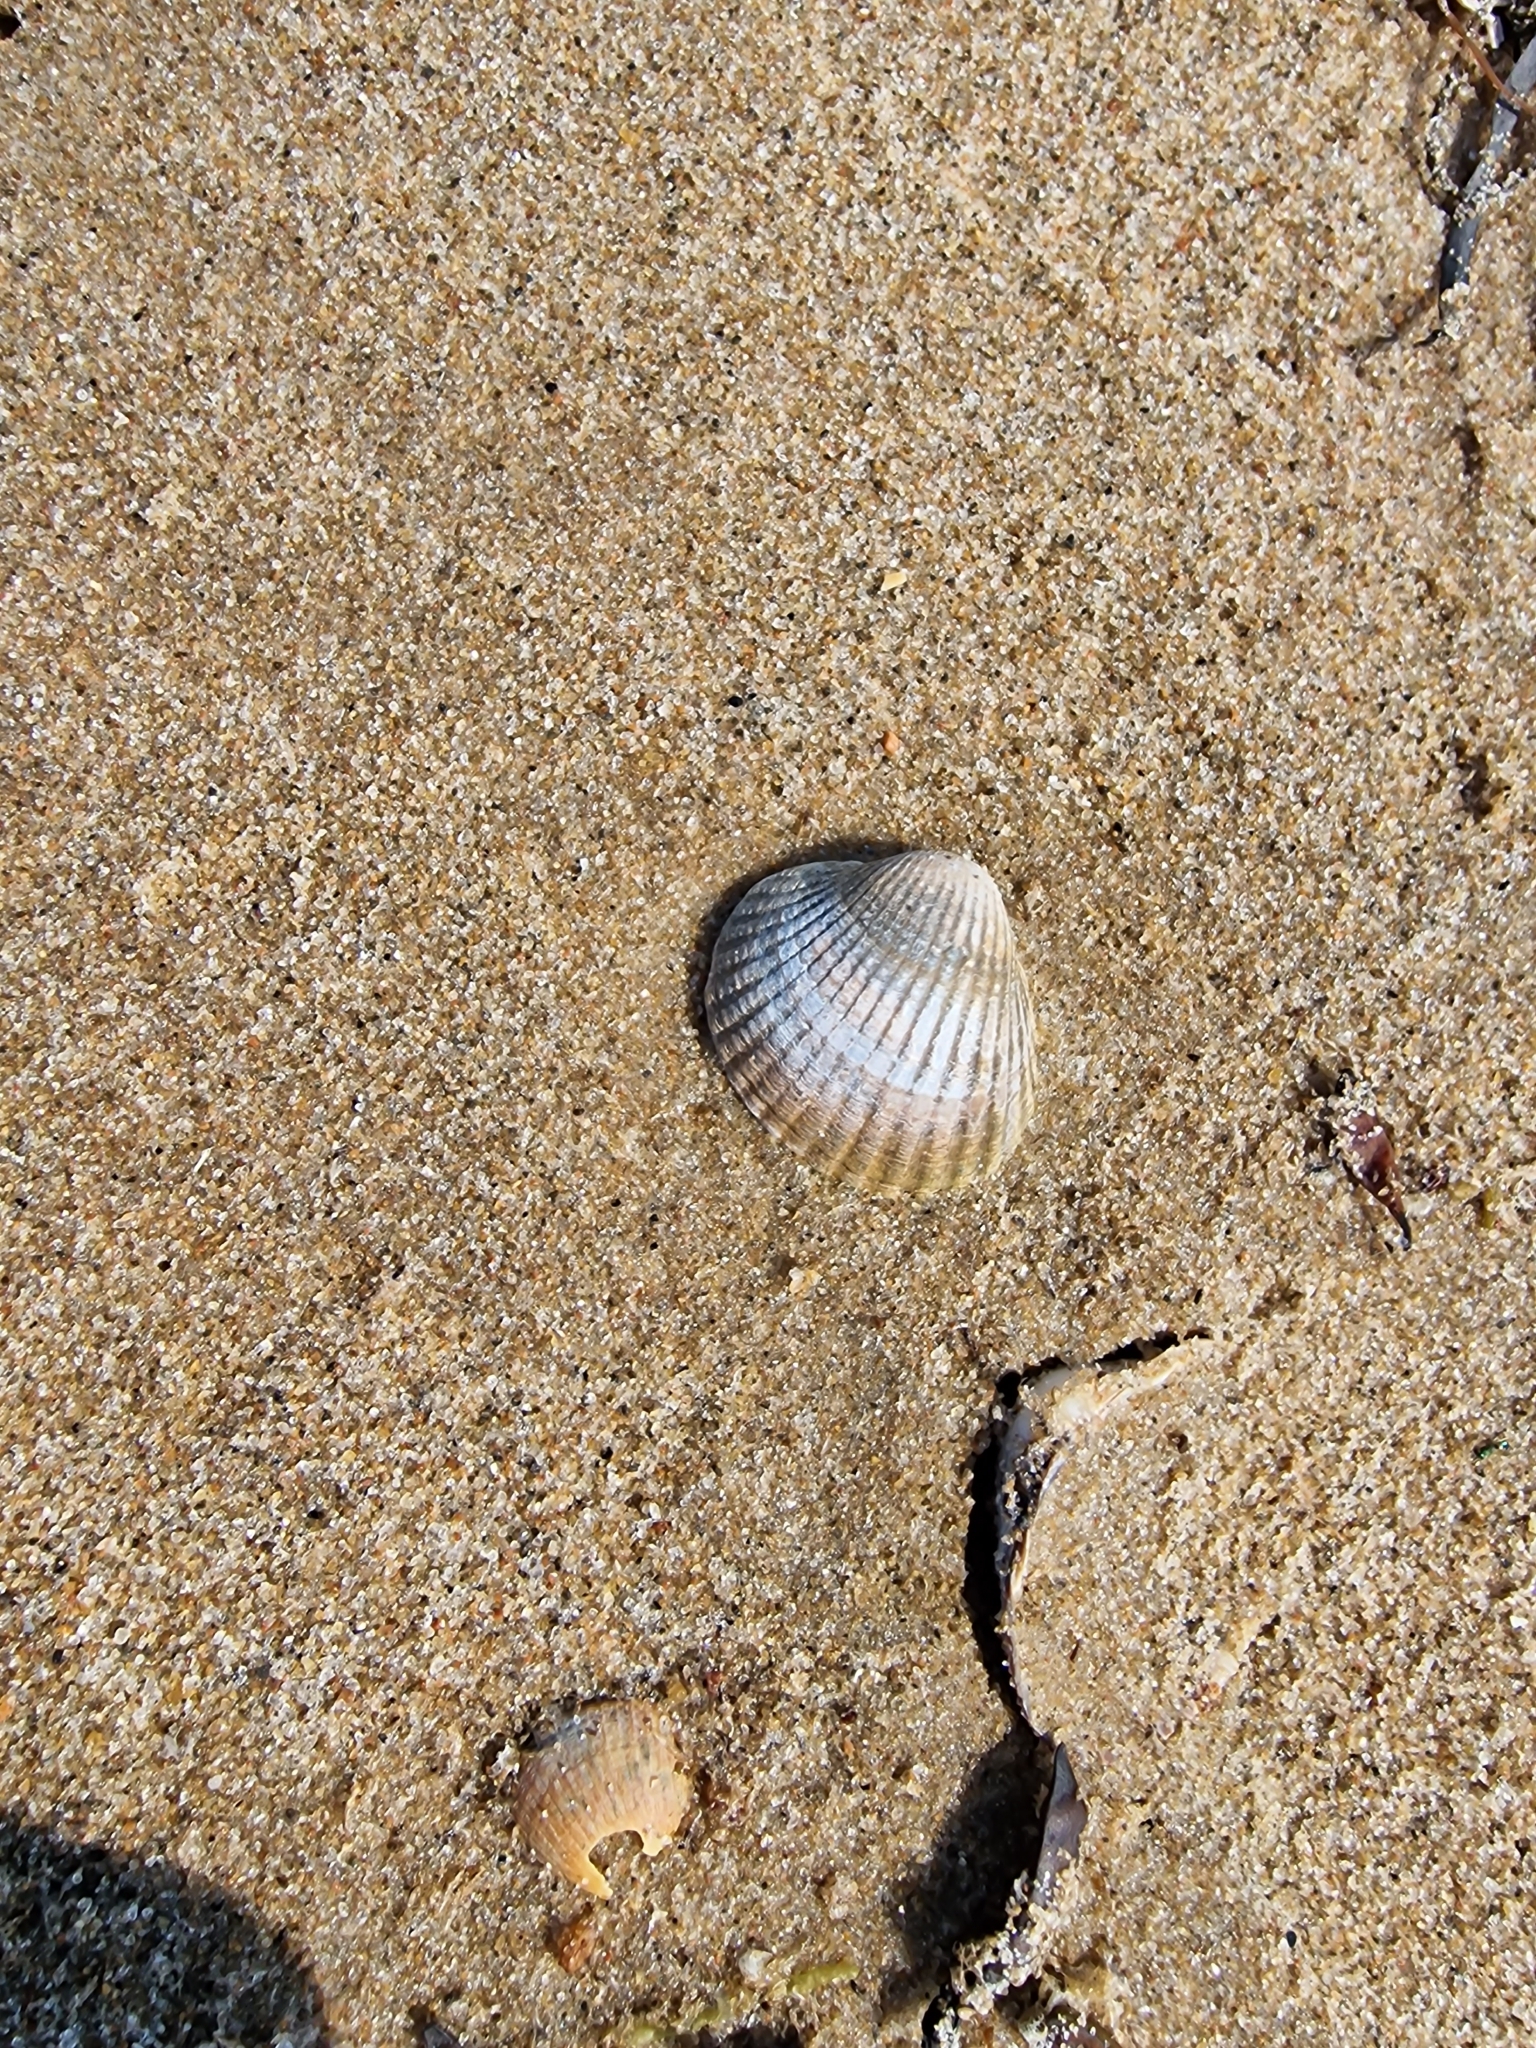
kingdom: Animalia
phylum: Mollusca
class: Bivalvia
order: Cardiida
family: Cardiidae
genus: Cerastoderma
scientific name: Cerastoderma edule
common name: Common cockle
